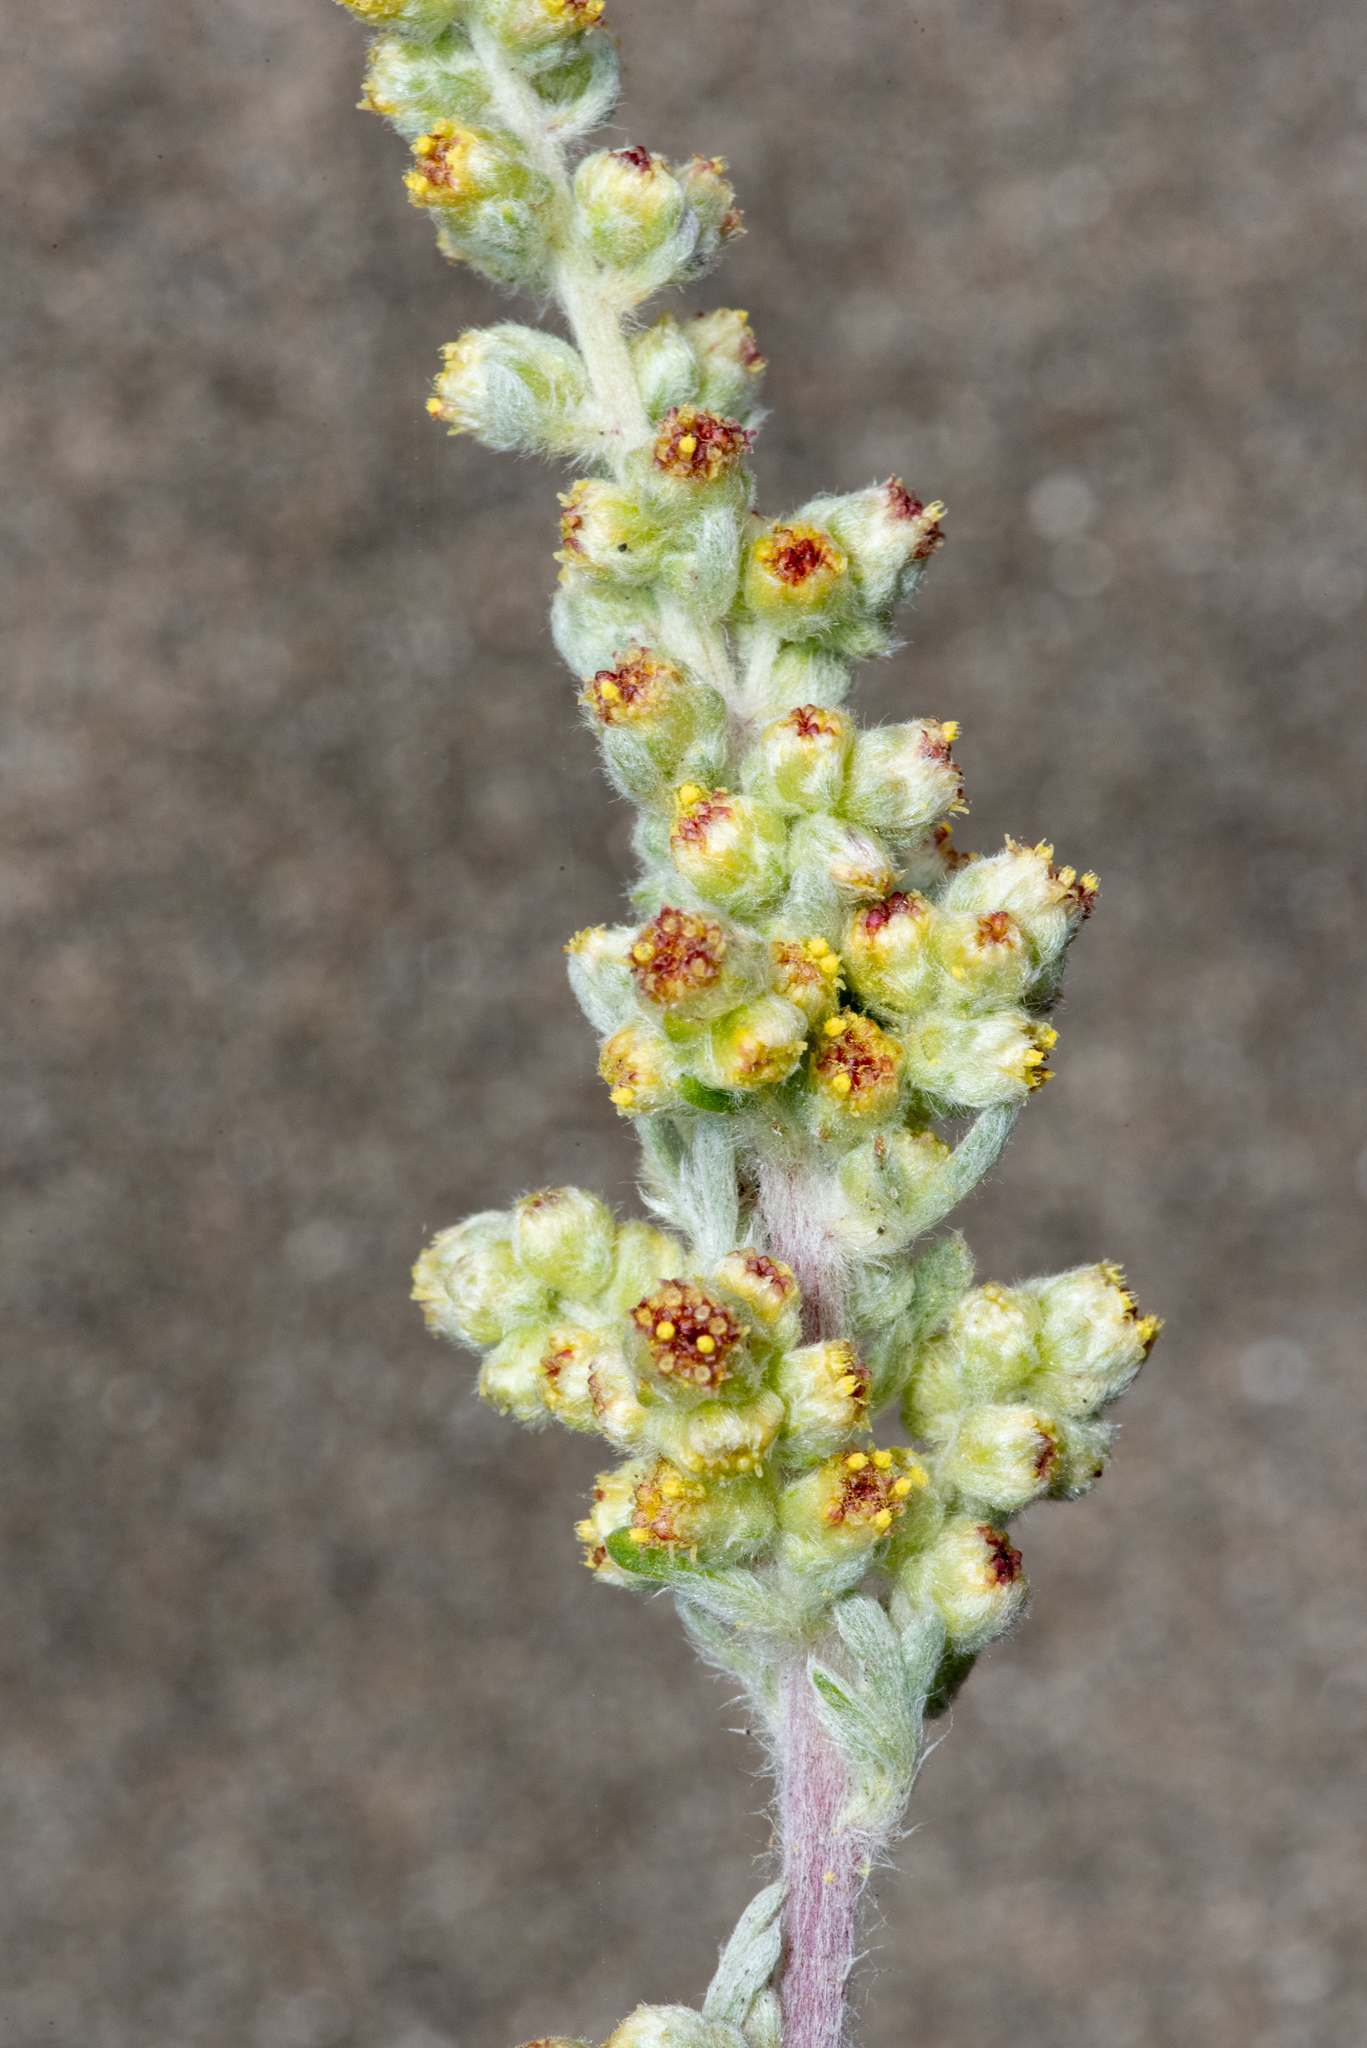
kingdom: Plantae
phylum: Tracheophyta
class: Magnoliopsida
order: Asterales
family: Asteraceae
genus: Artemisia
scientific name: Artemisia pycnocephala
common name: Coastal sagewort
